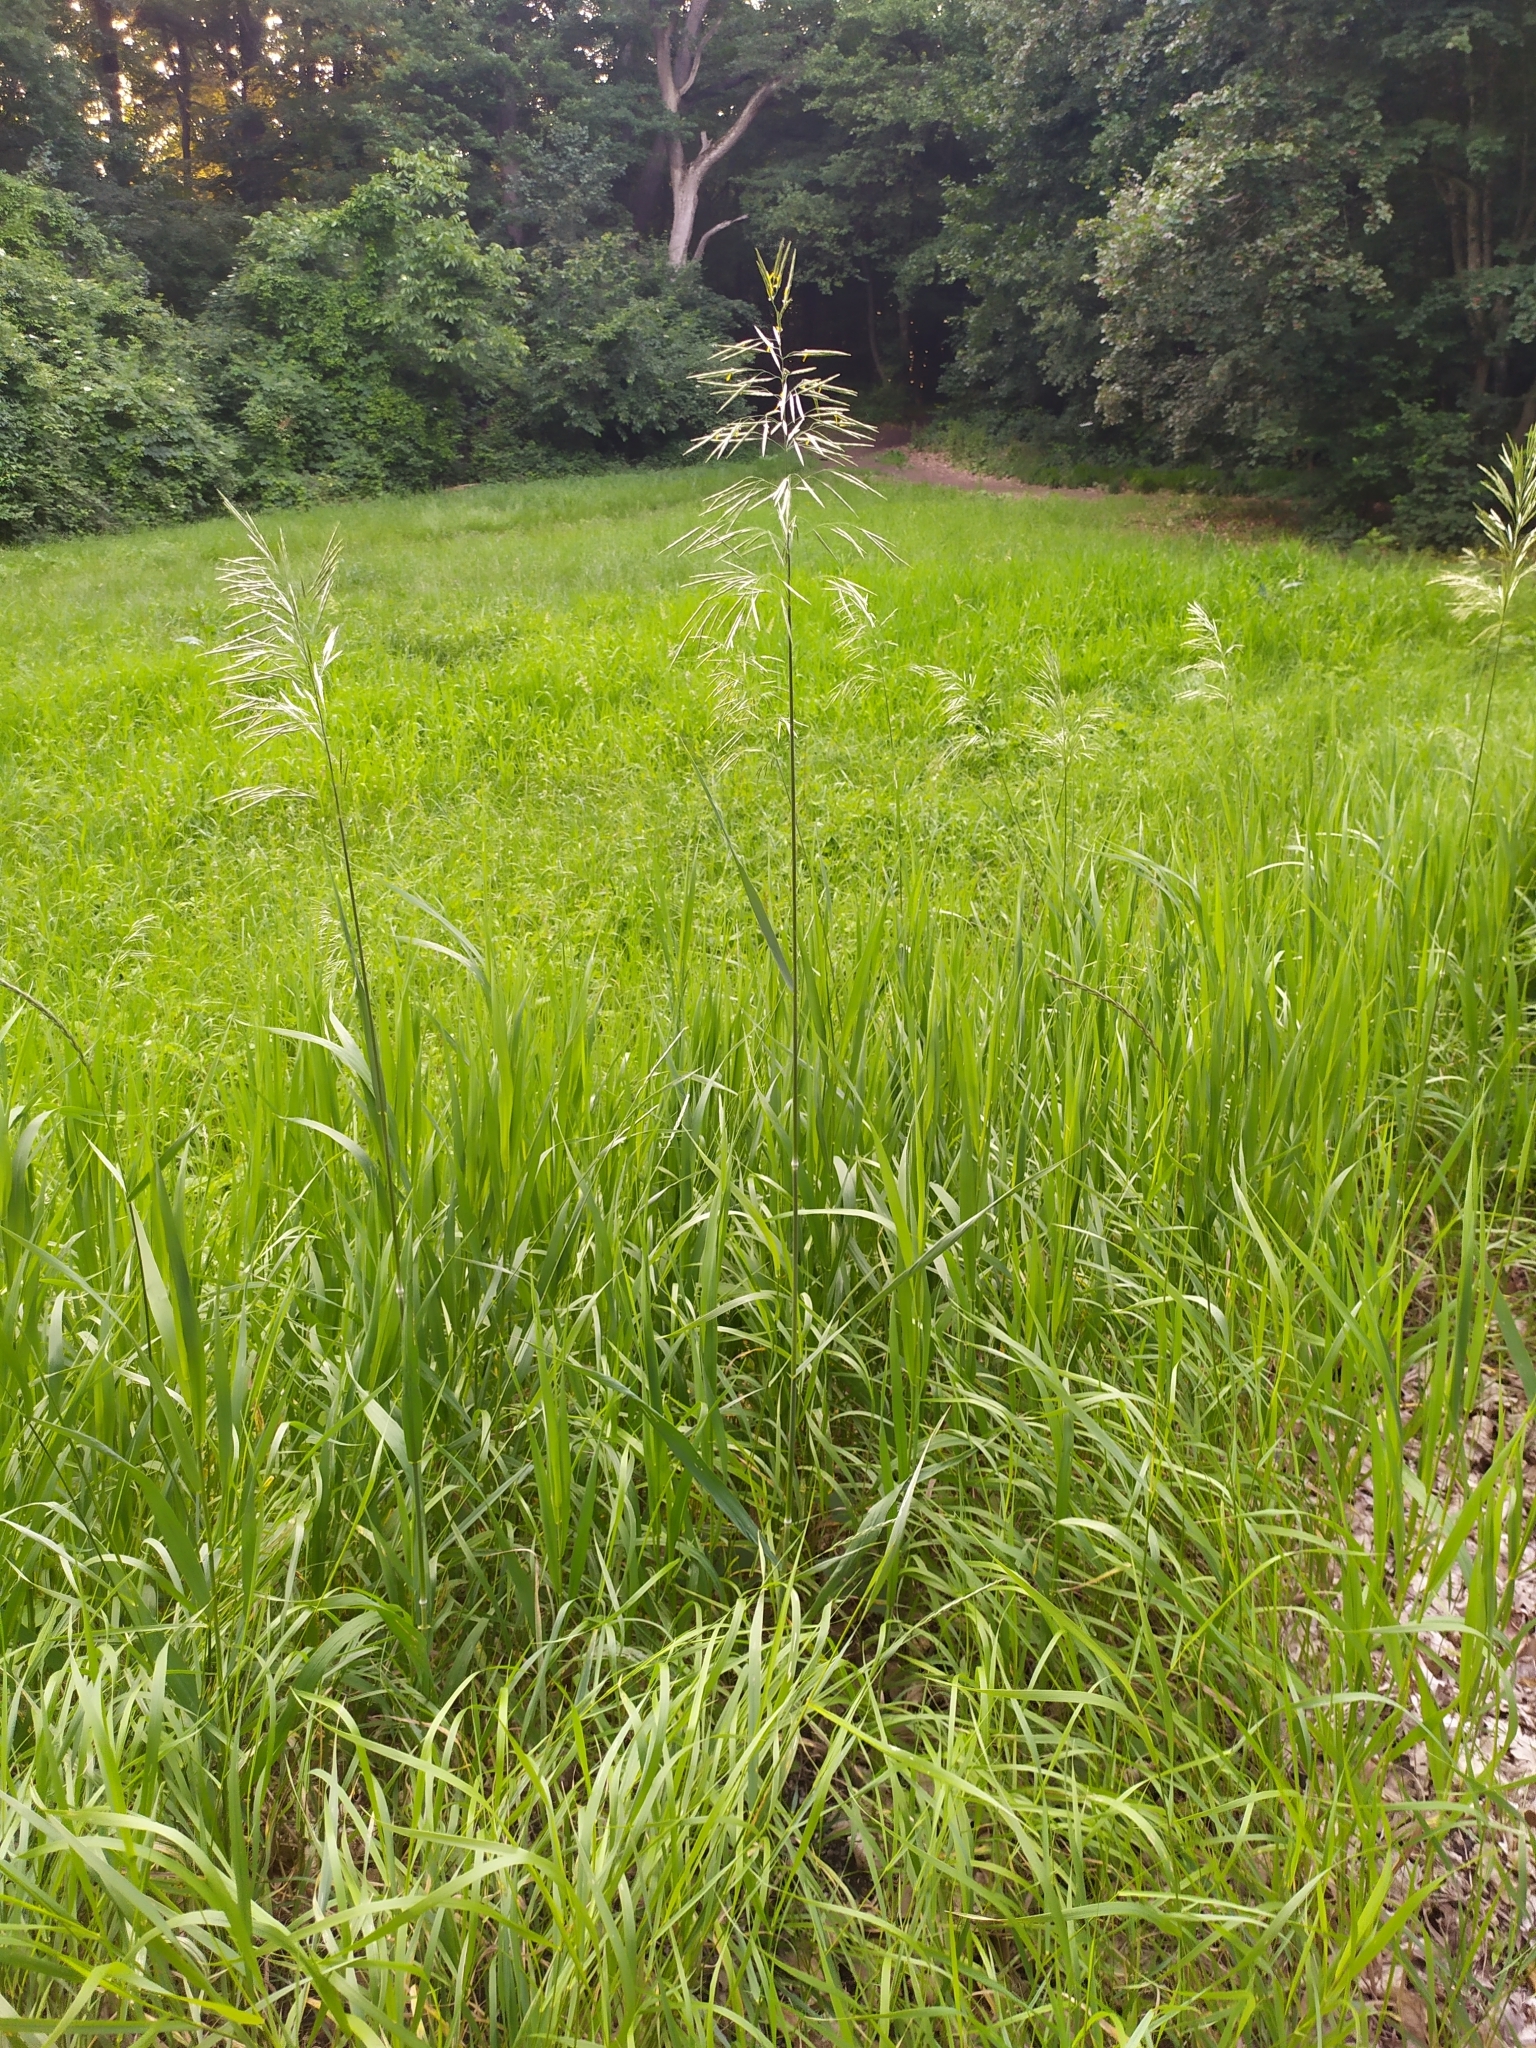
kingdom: Plantae
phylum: Tracheophyta
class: Liliopsida
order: Poales
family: Poaceae
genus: Bromus
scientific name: Bromus inermis
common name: Smooth brome
